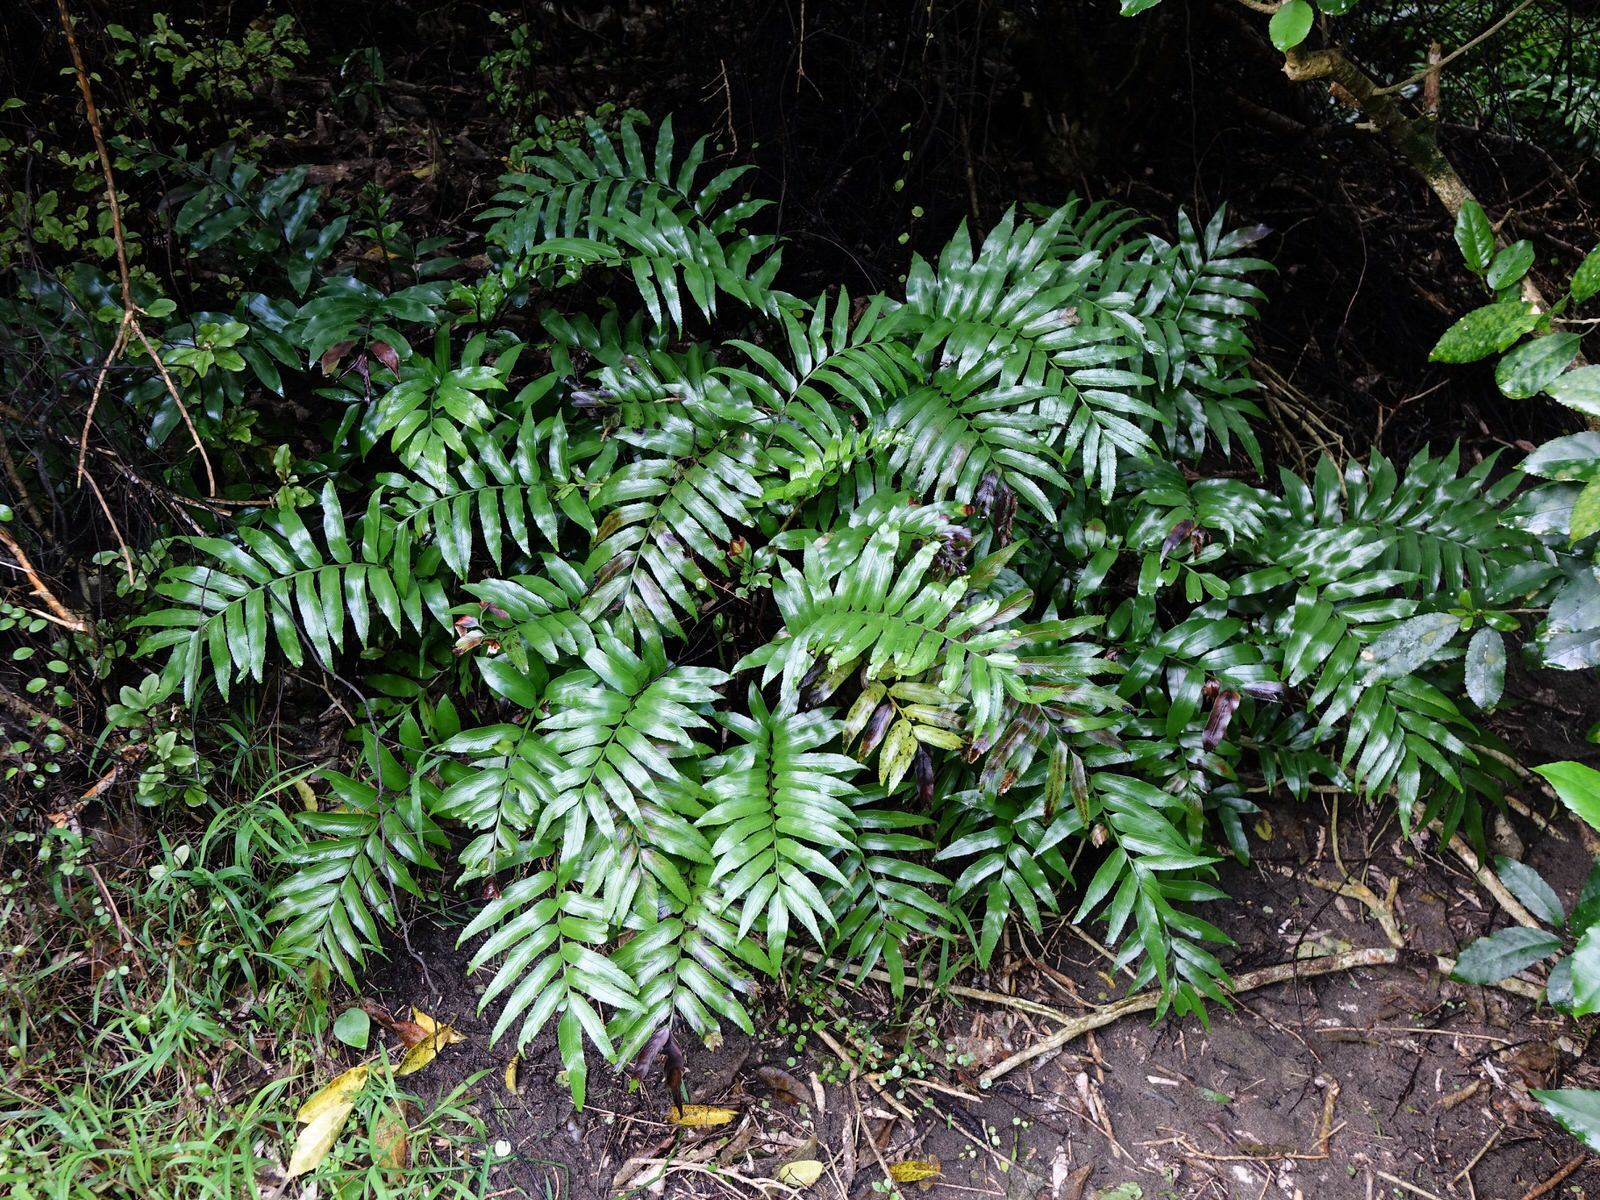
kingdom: Plantae
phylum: Tracheophyta
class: Polypodiopsida
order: Polypodiales
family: Aspleniaceae
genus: Asplenium
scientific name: Asplenium oblongifolium
